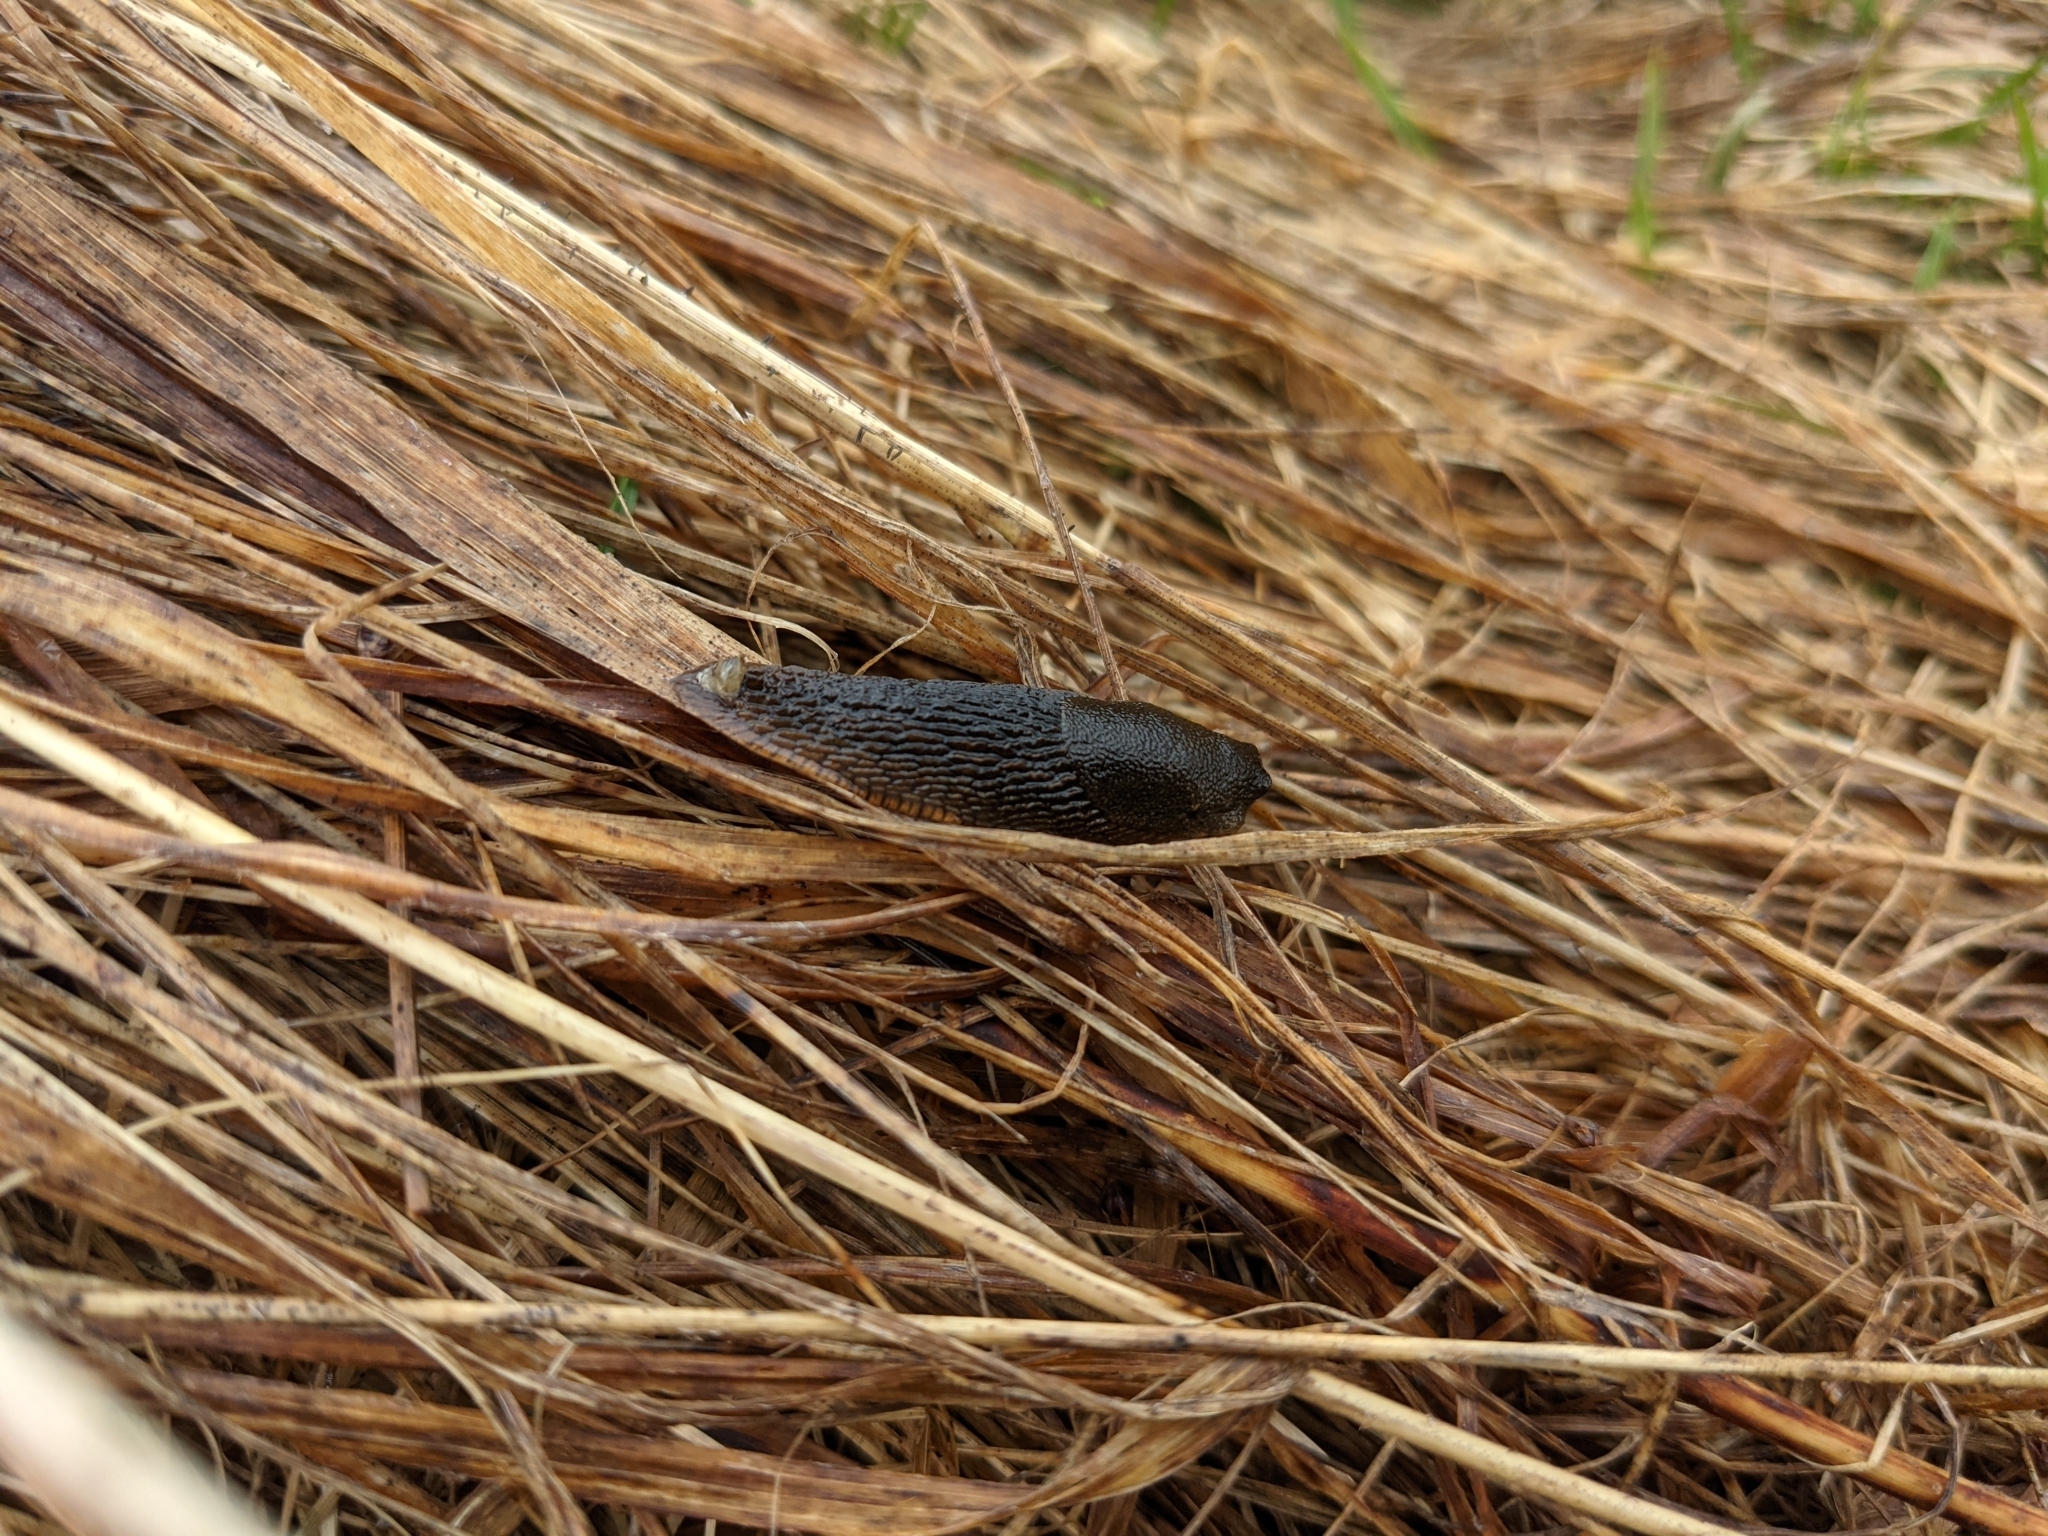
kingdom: Animalia
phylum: Mollusca
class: Gastropoda
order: Stylommatophora
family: Arionidae
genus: Arion
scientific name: Arion
